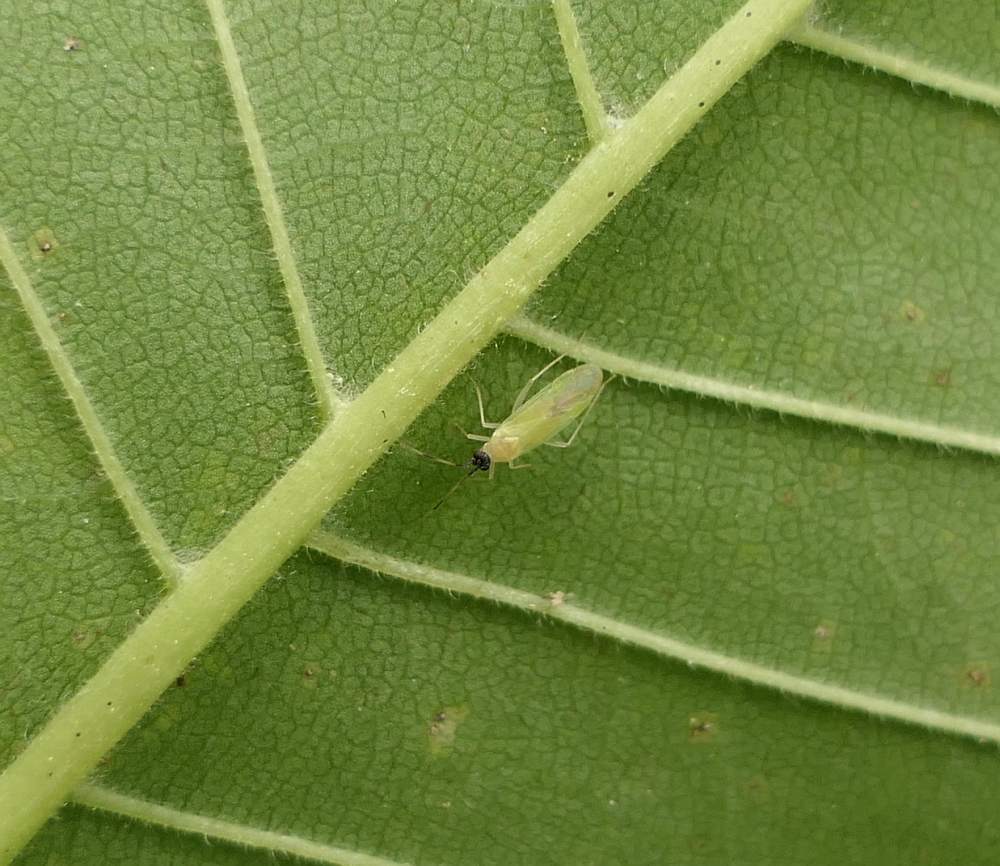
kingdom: Animalia
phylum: Arthropoda
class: Insecta
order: Hemiptera
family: Miridae
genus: Paraproba
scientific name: Paraproba capitata
